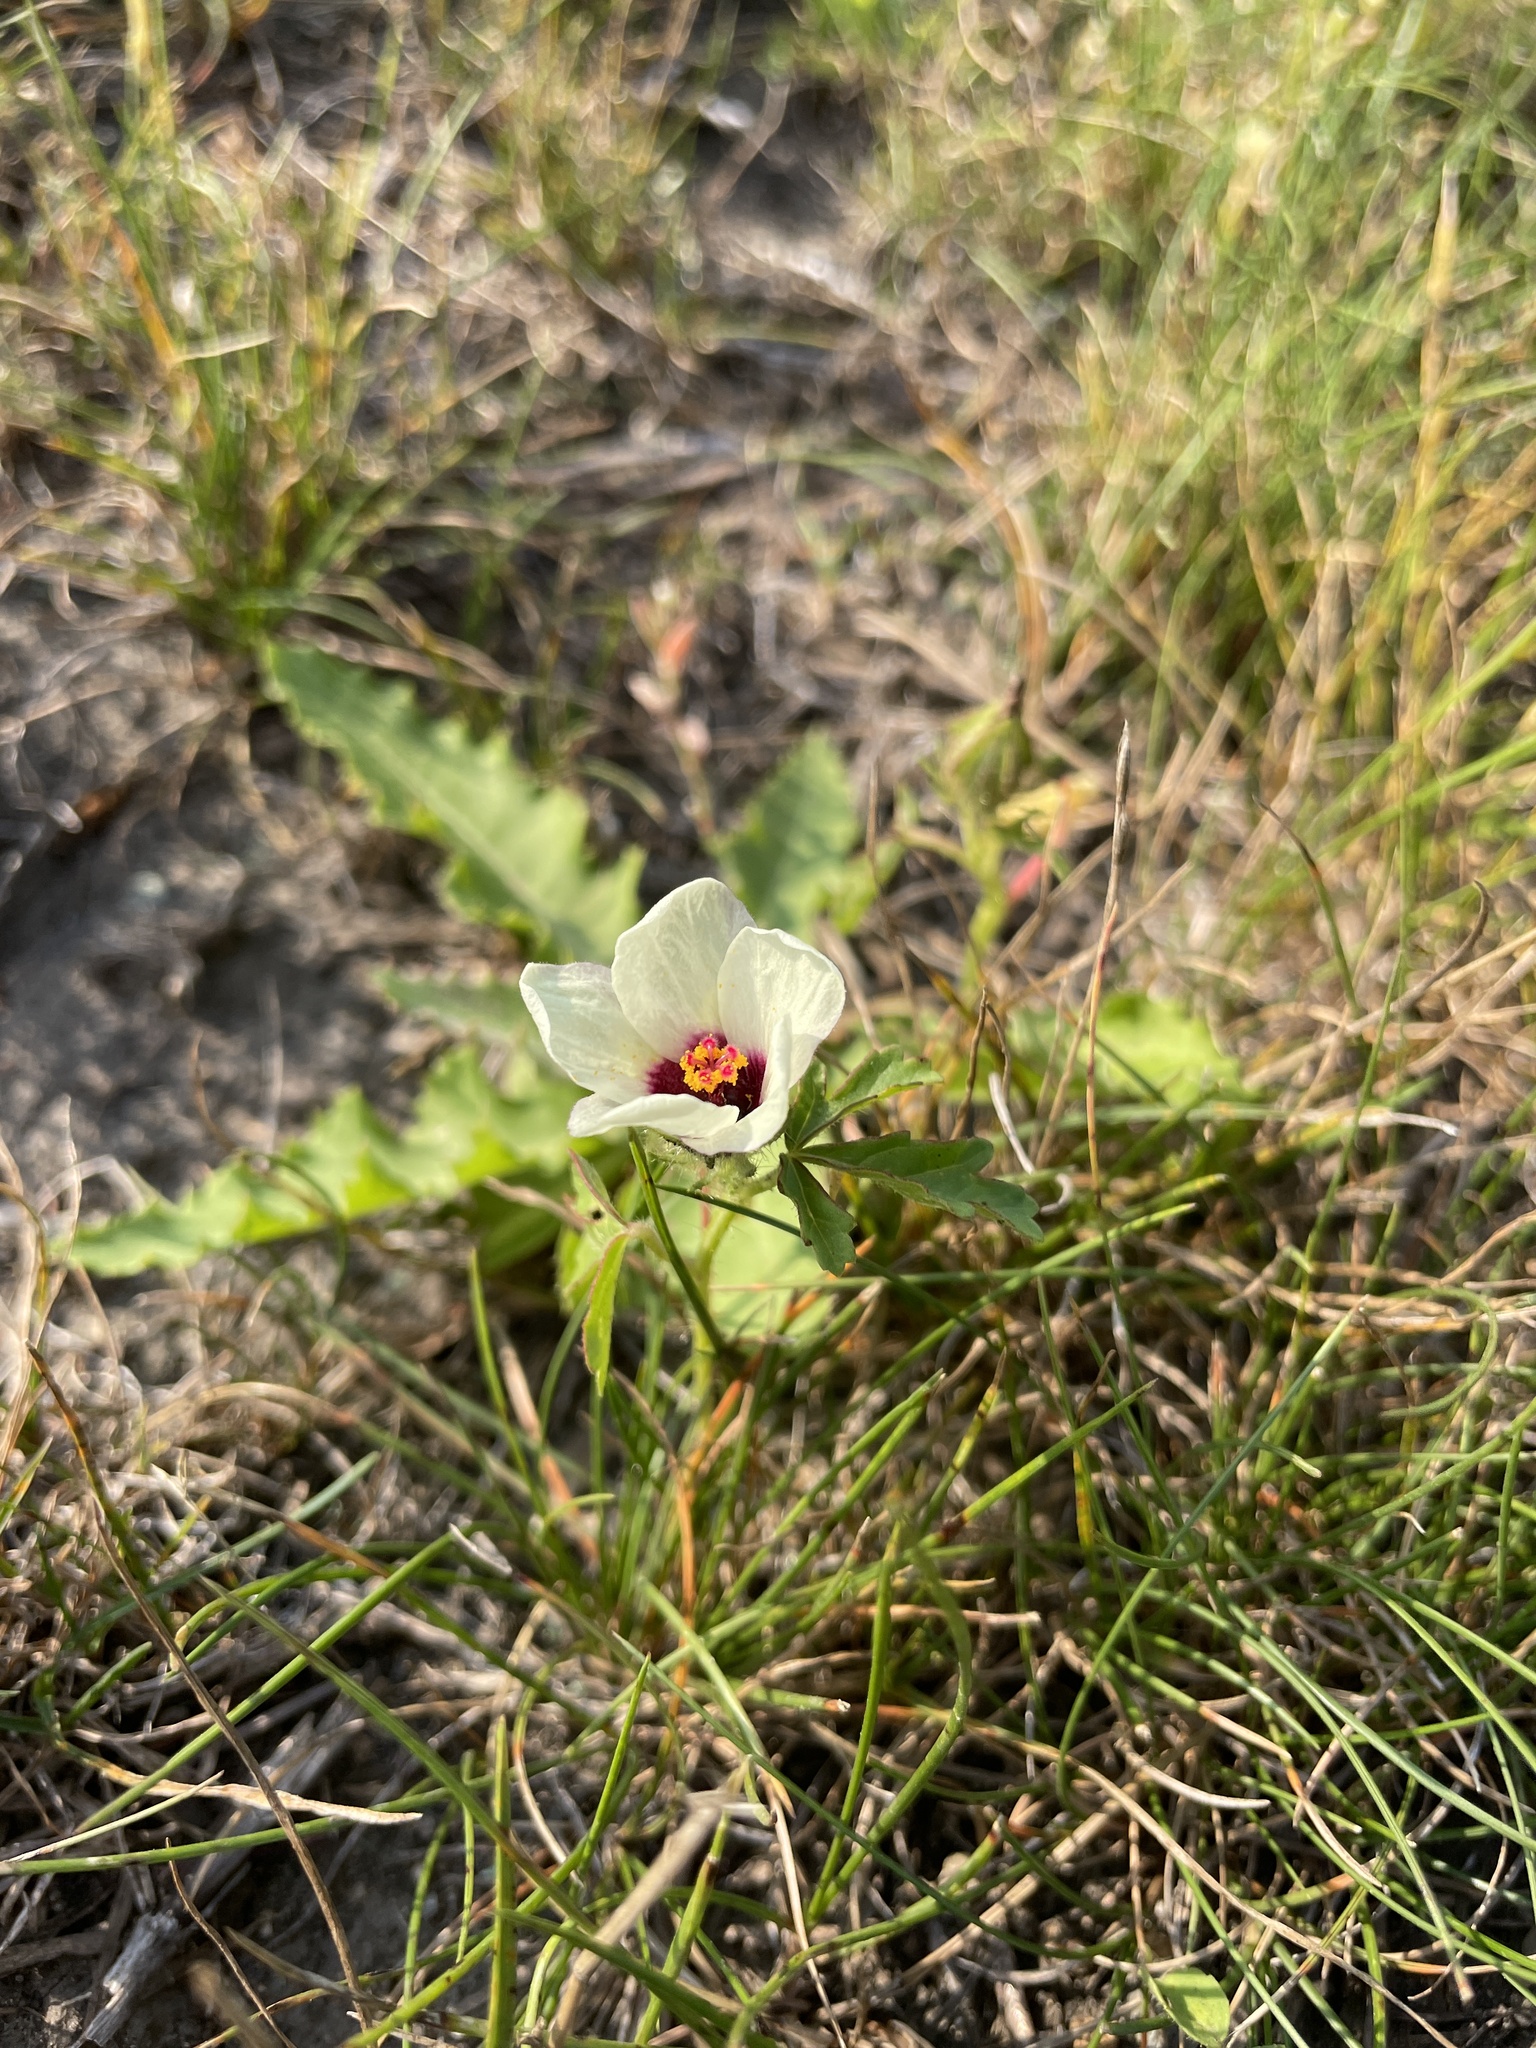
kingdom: Plantae
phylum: Tracheophyta
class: Magnoliopsida
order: Malvales
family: Malvaceae
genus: Hibiscus
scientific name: Hibiscus trionum
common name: Bladder ketmia
